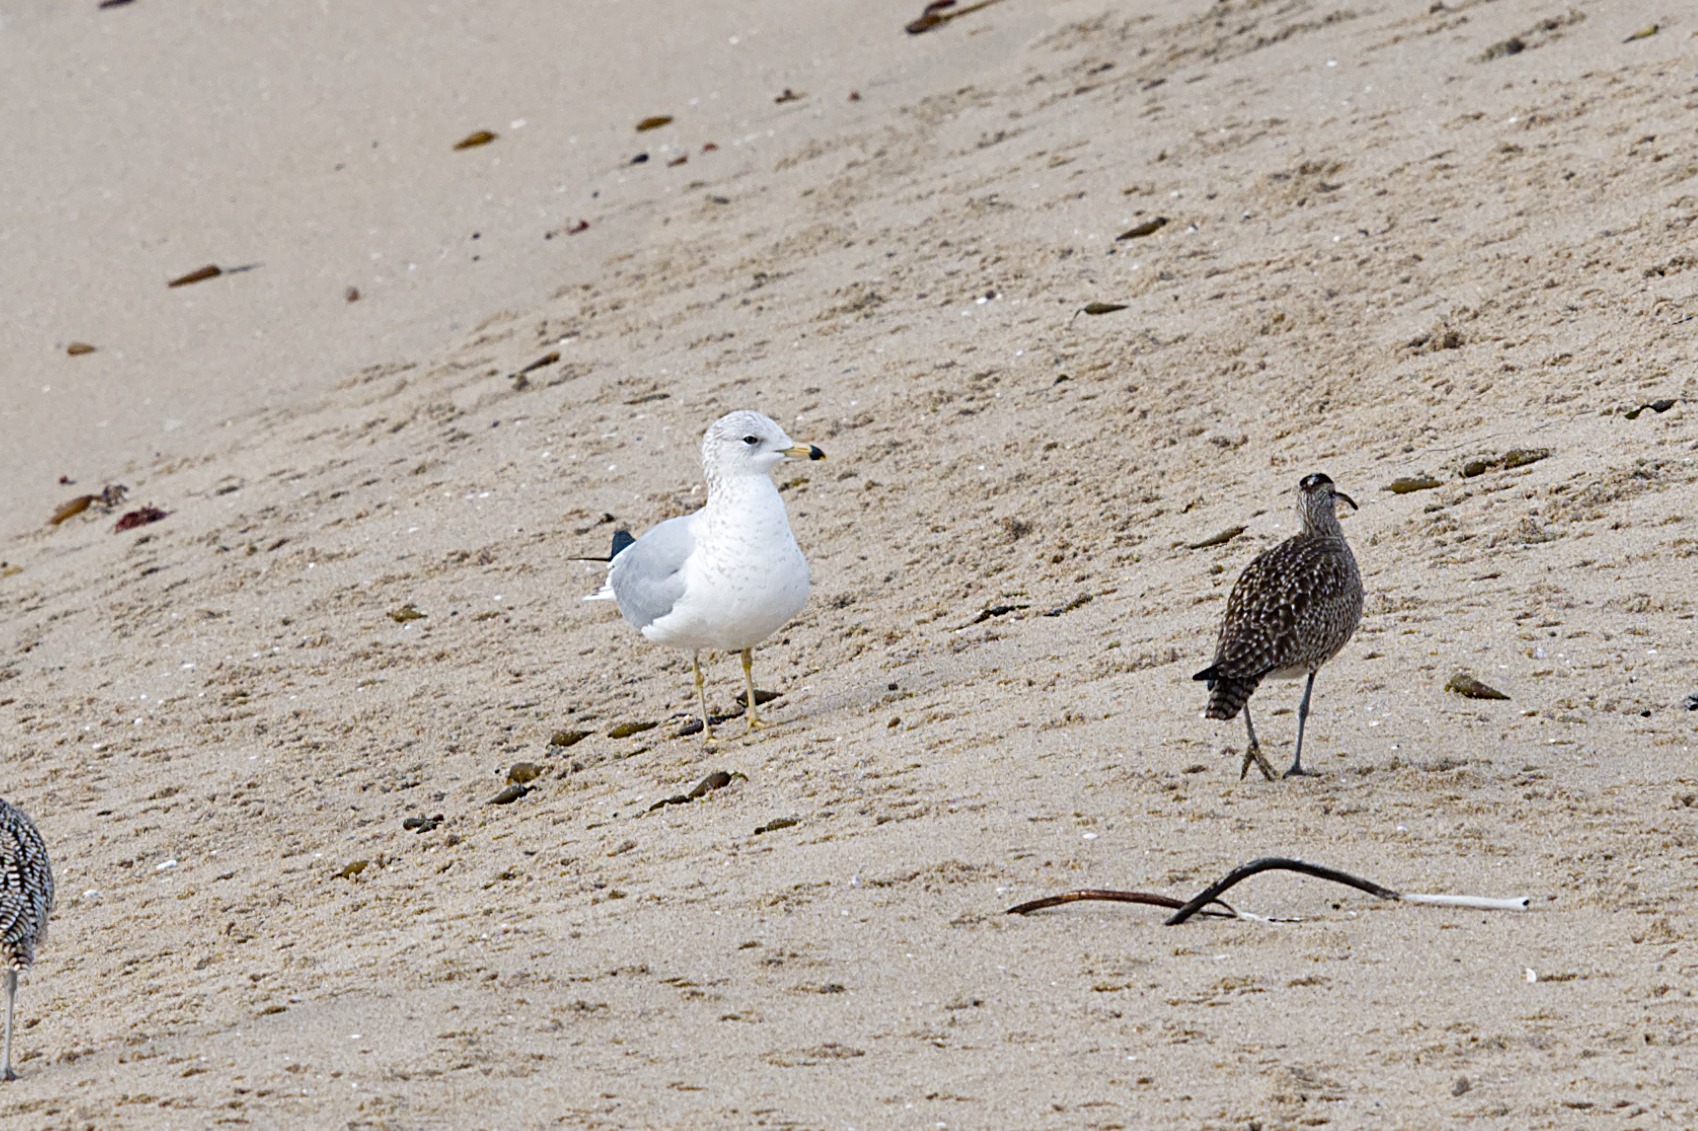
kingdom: Animalia
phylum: Chordata
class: Aves
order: Charadriiformes
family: Laridae
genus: Larus
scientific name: Larus delawarensis
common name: Ring-billed gull
